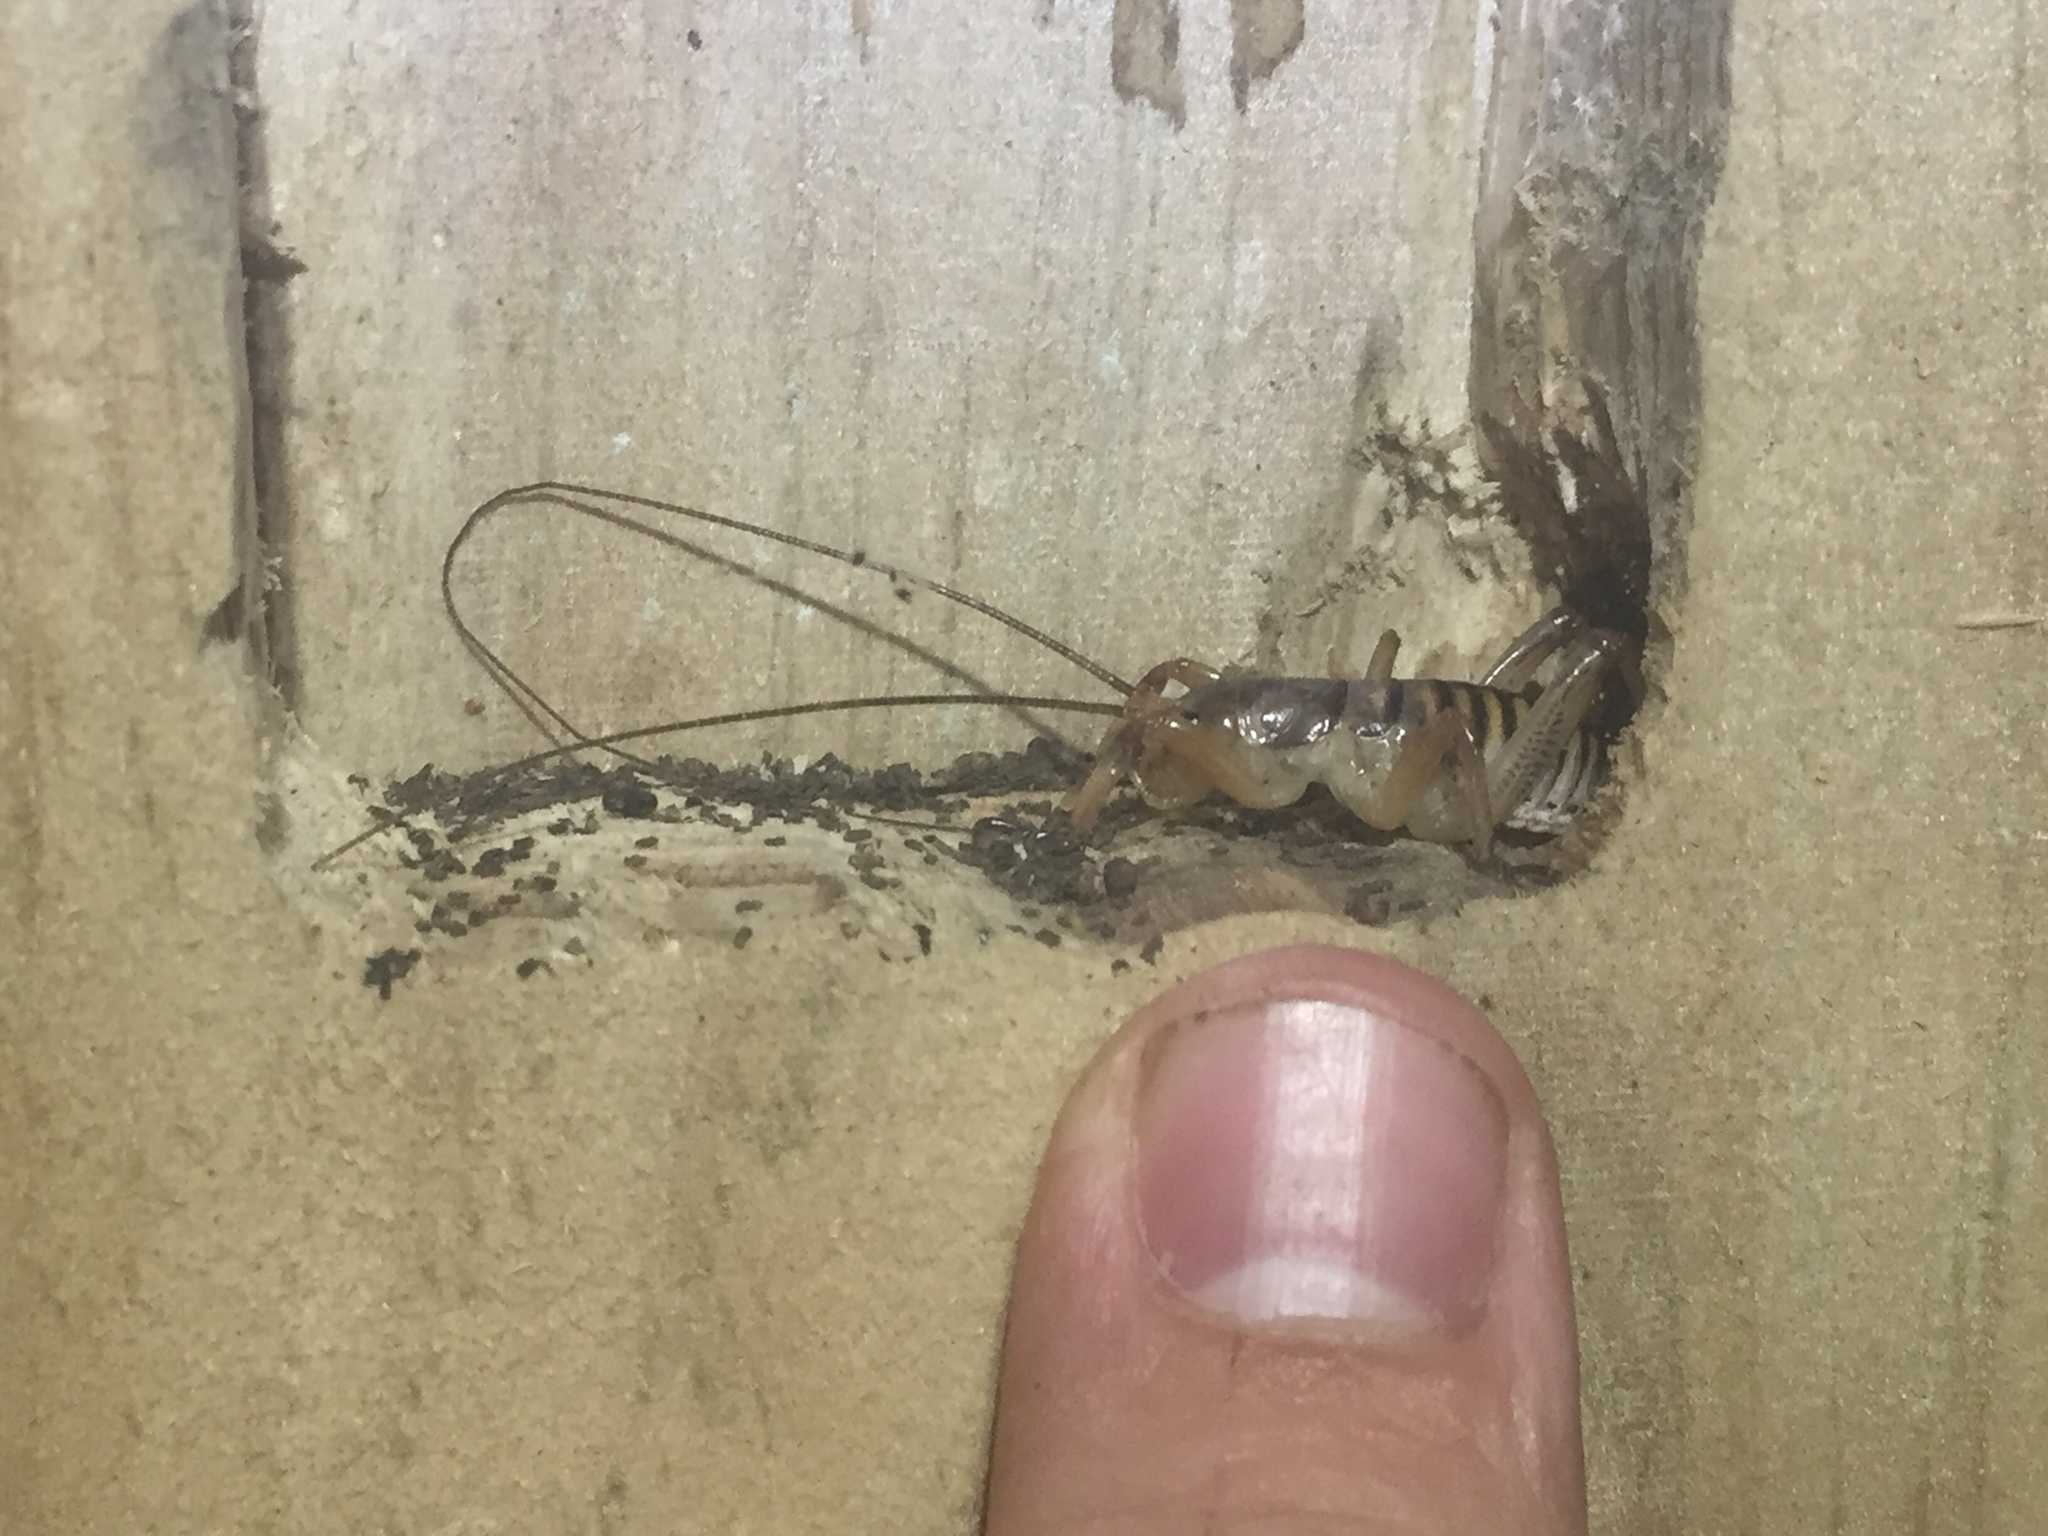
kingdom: Animalia
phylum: Arthropoda
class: Insecta
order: Orthoptera
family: Anostostomatidae
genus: Hemideina
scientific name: Hemideina crassidens
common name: Wellington tree weta
